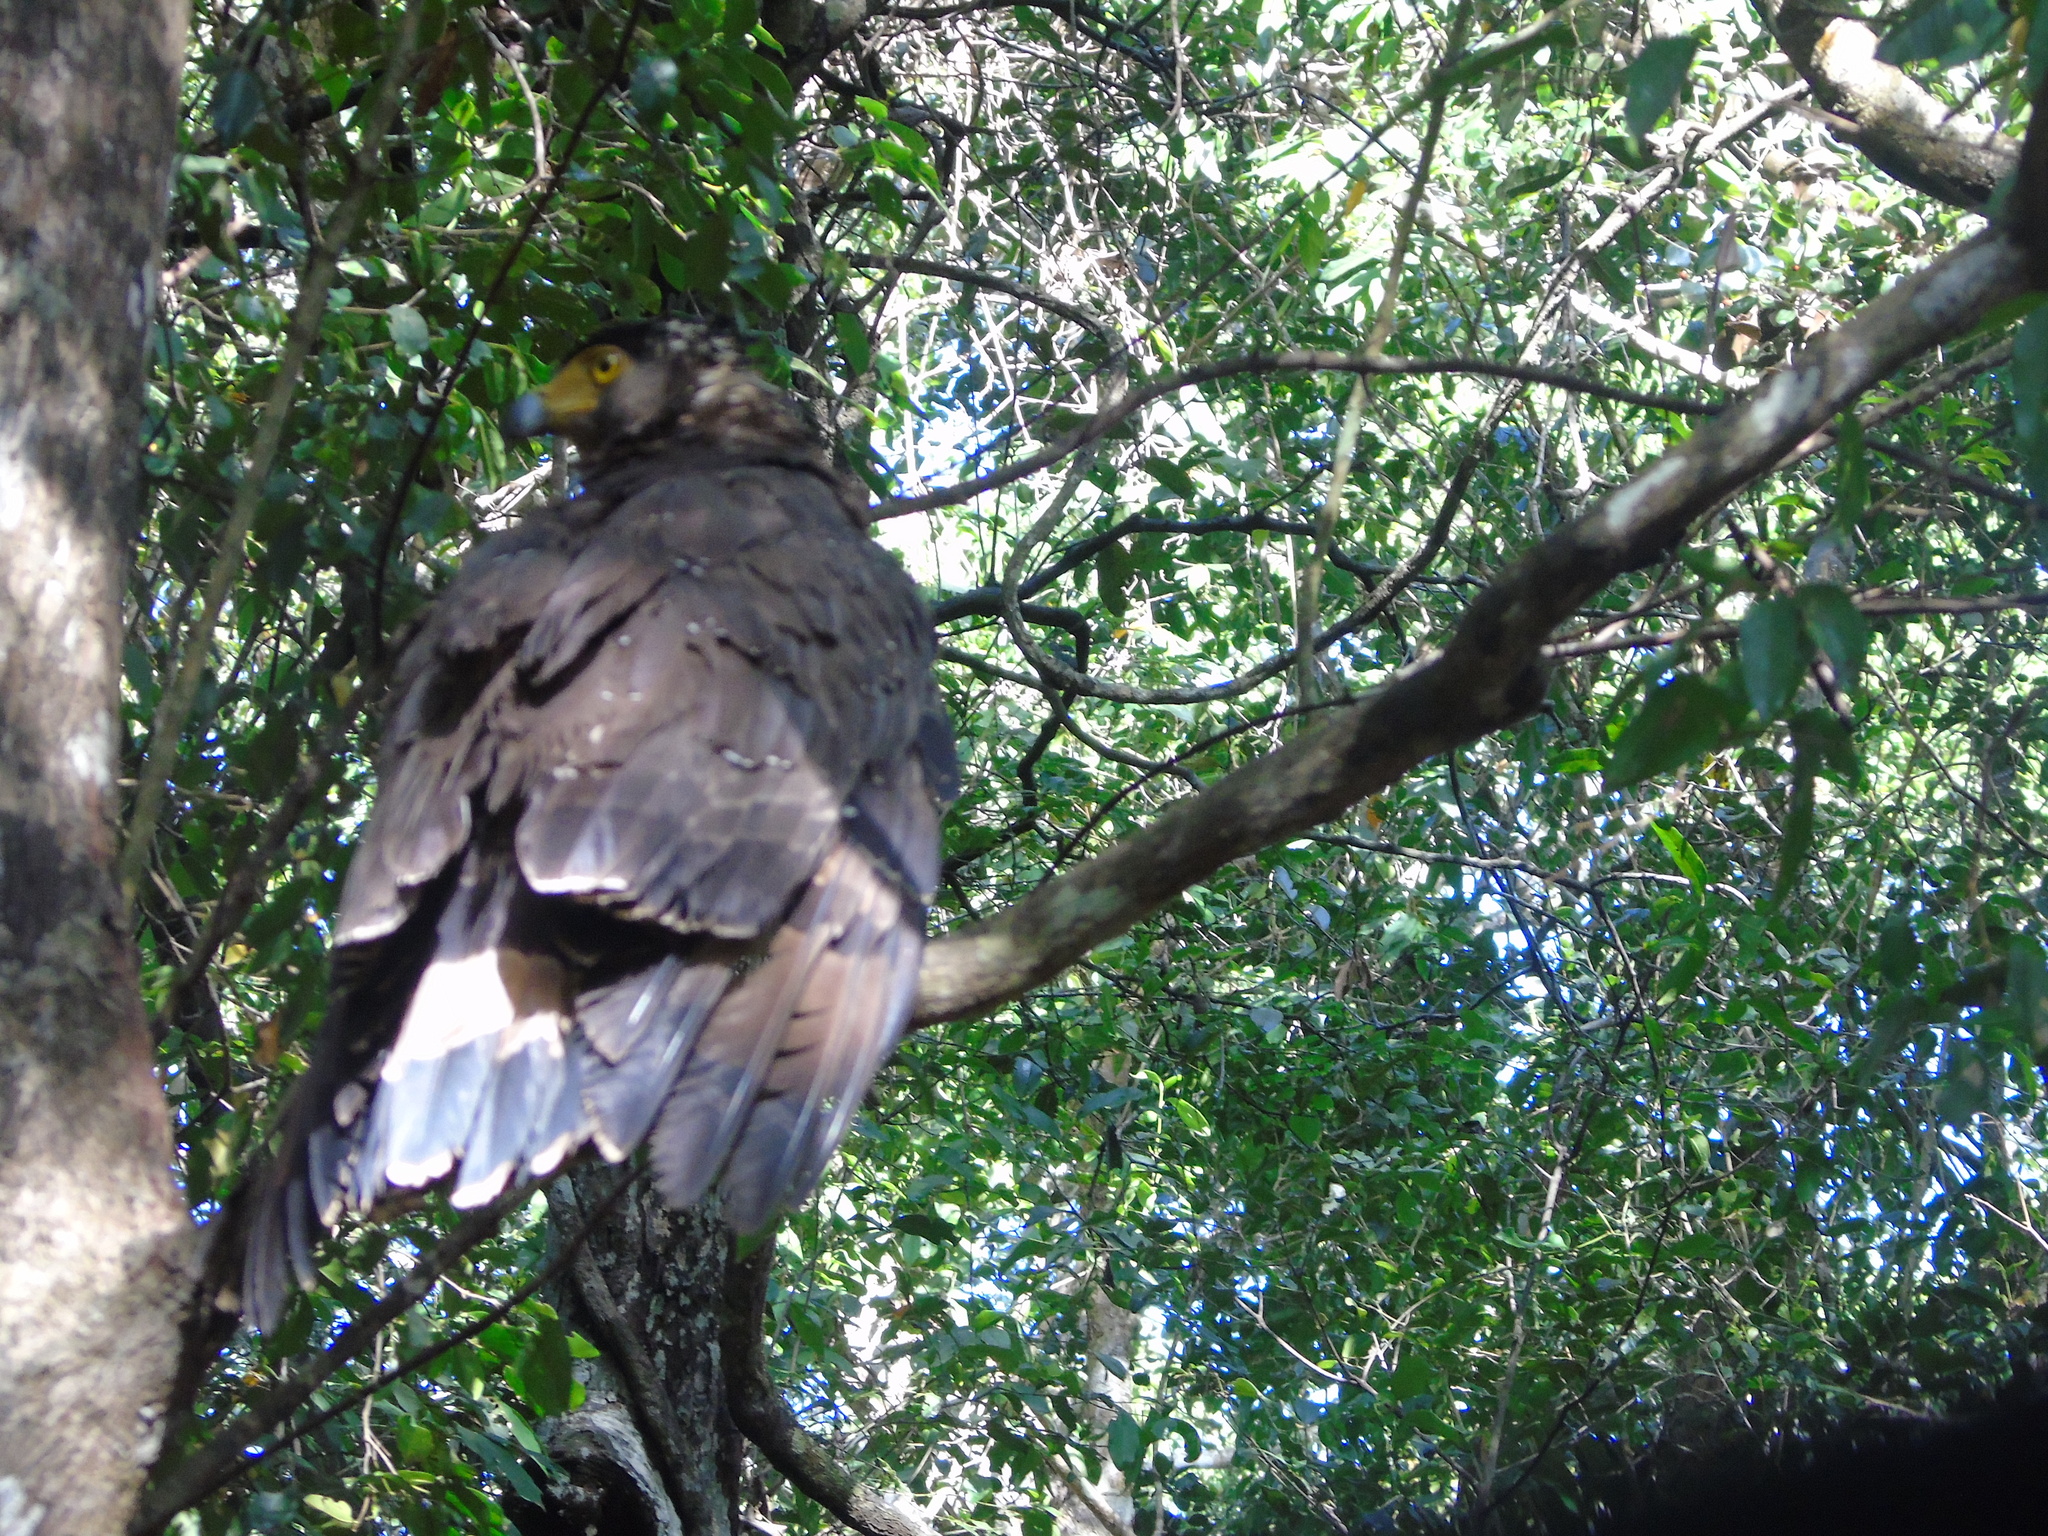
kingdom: Animalia
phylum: Chordata
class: Aves
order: Accipitriformes
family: Accipitridae
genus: Spilornis
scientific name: Spilornis cheela
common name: Crested serpent eagle
